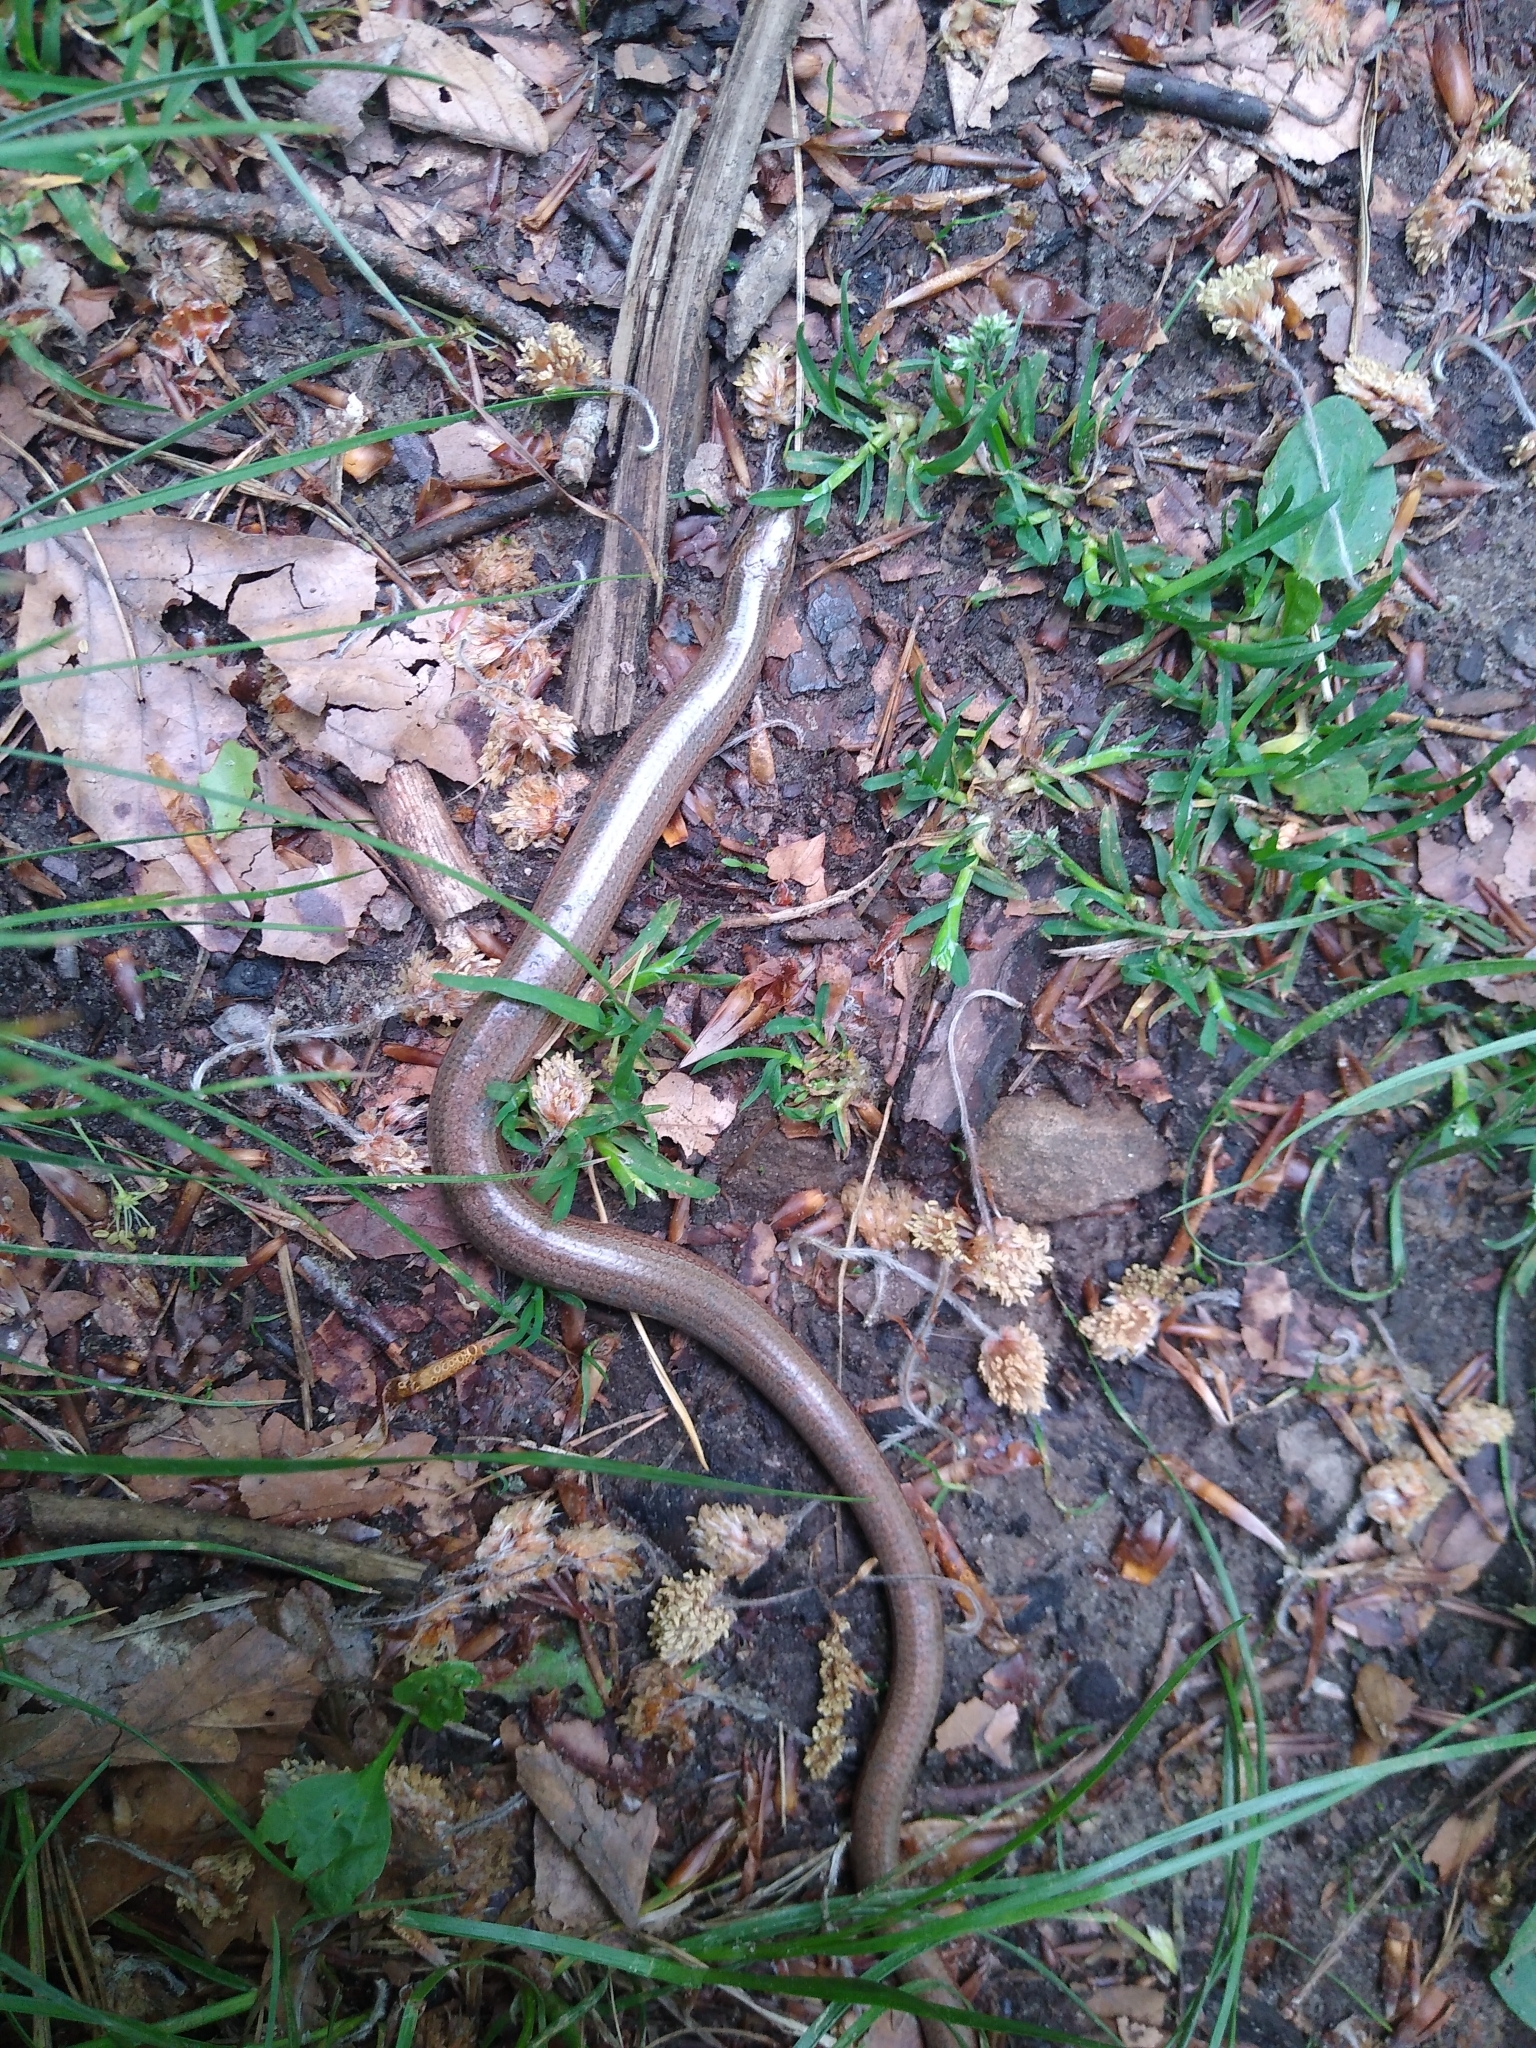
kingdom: Animalia
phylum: Chordata
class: Squamata
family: Anguidae
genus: Anguis
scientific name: Anguis fragilis
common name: Slow worm
